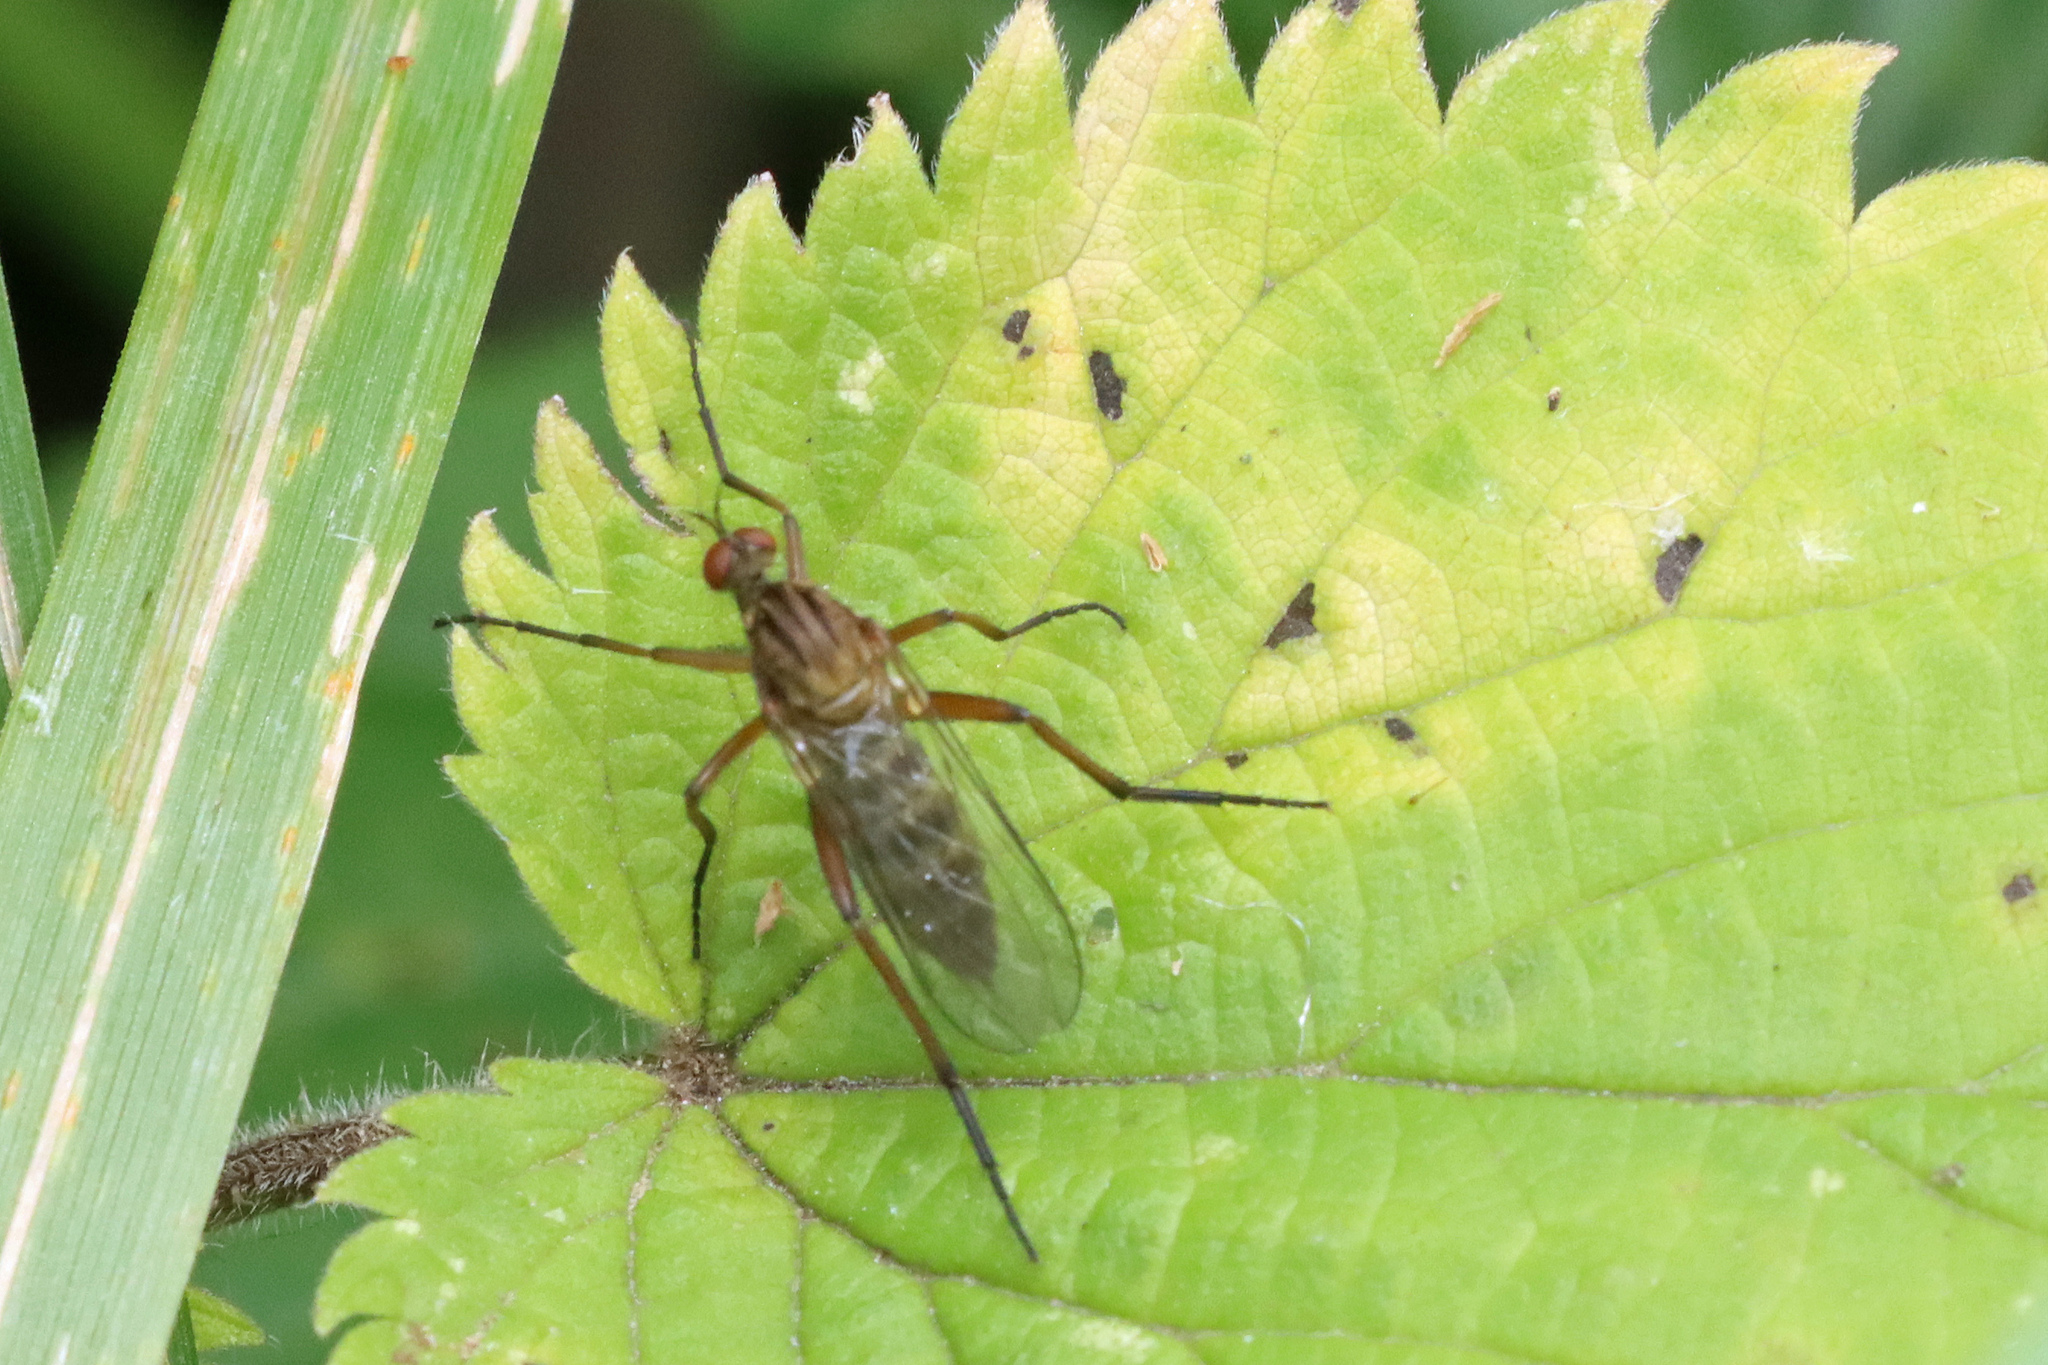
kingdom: Animalia
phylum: Arthropoda
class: Insecta
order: Diptera
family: Empididae
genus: Empis
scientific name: Empis livida
